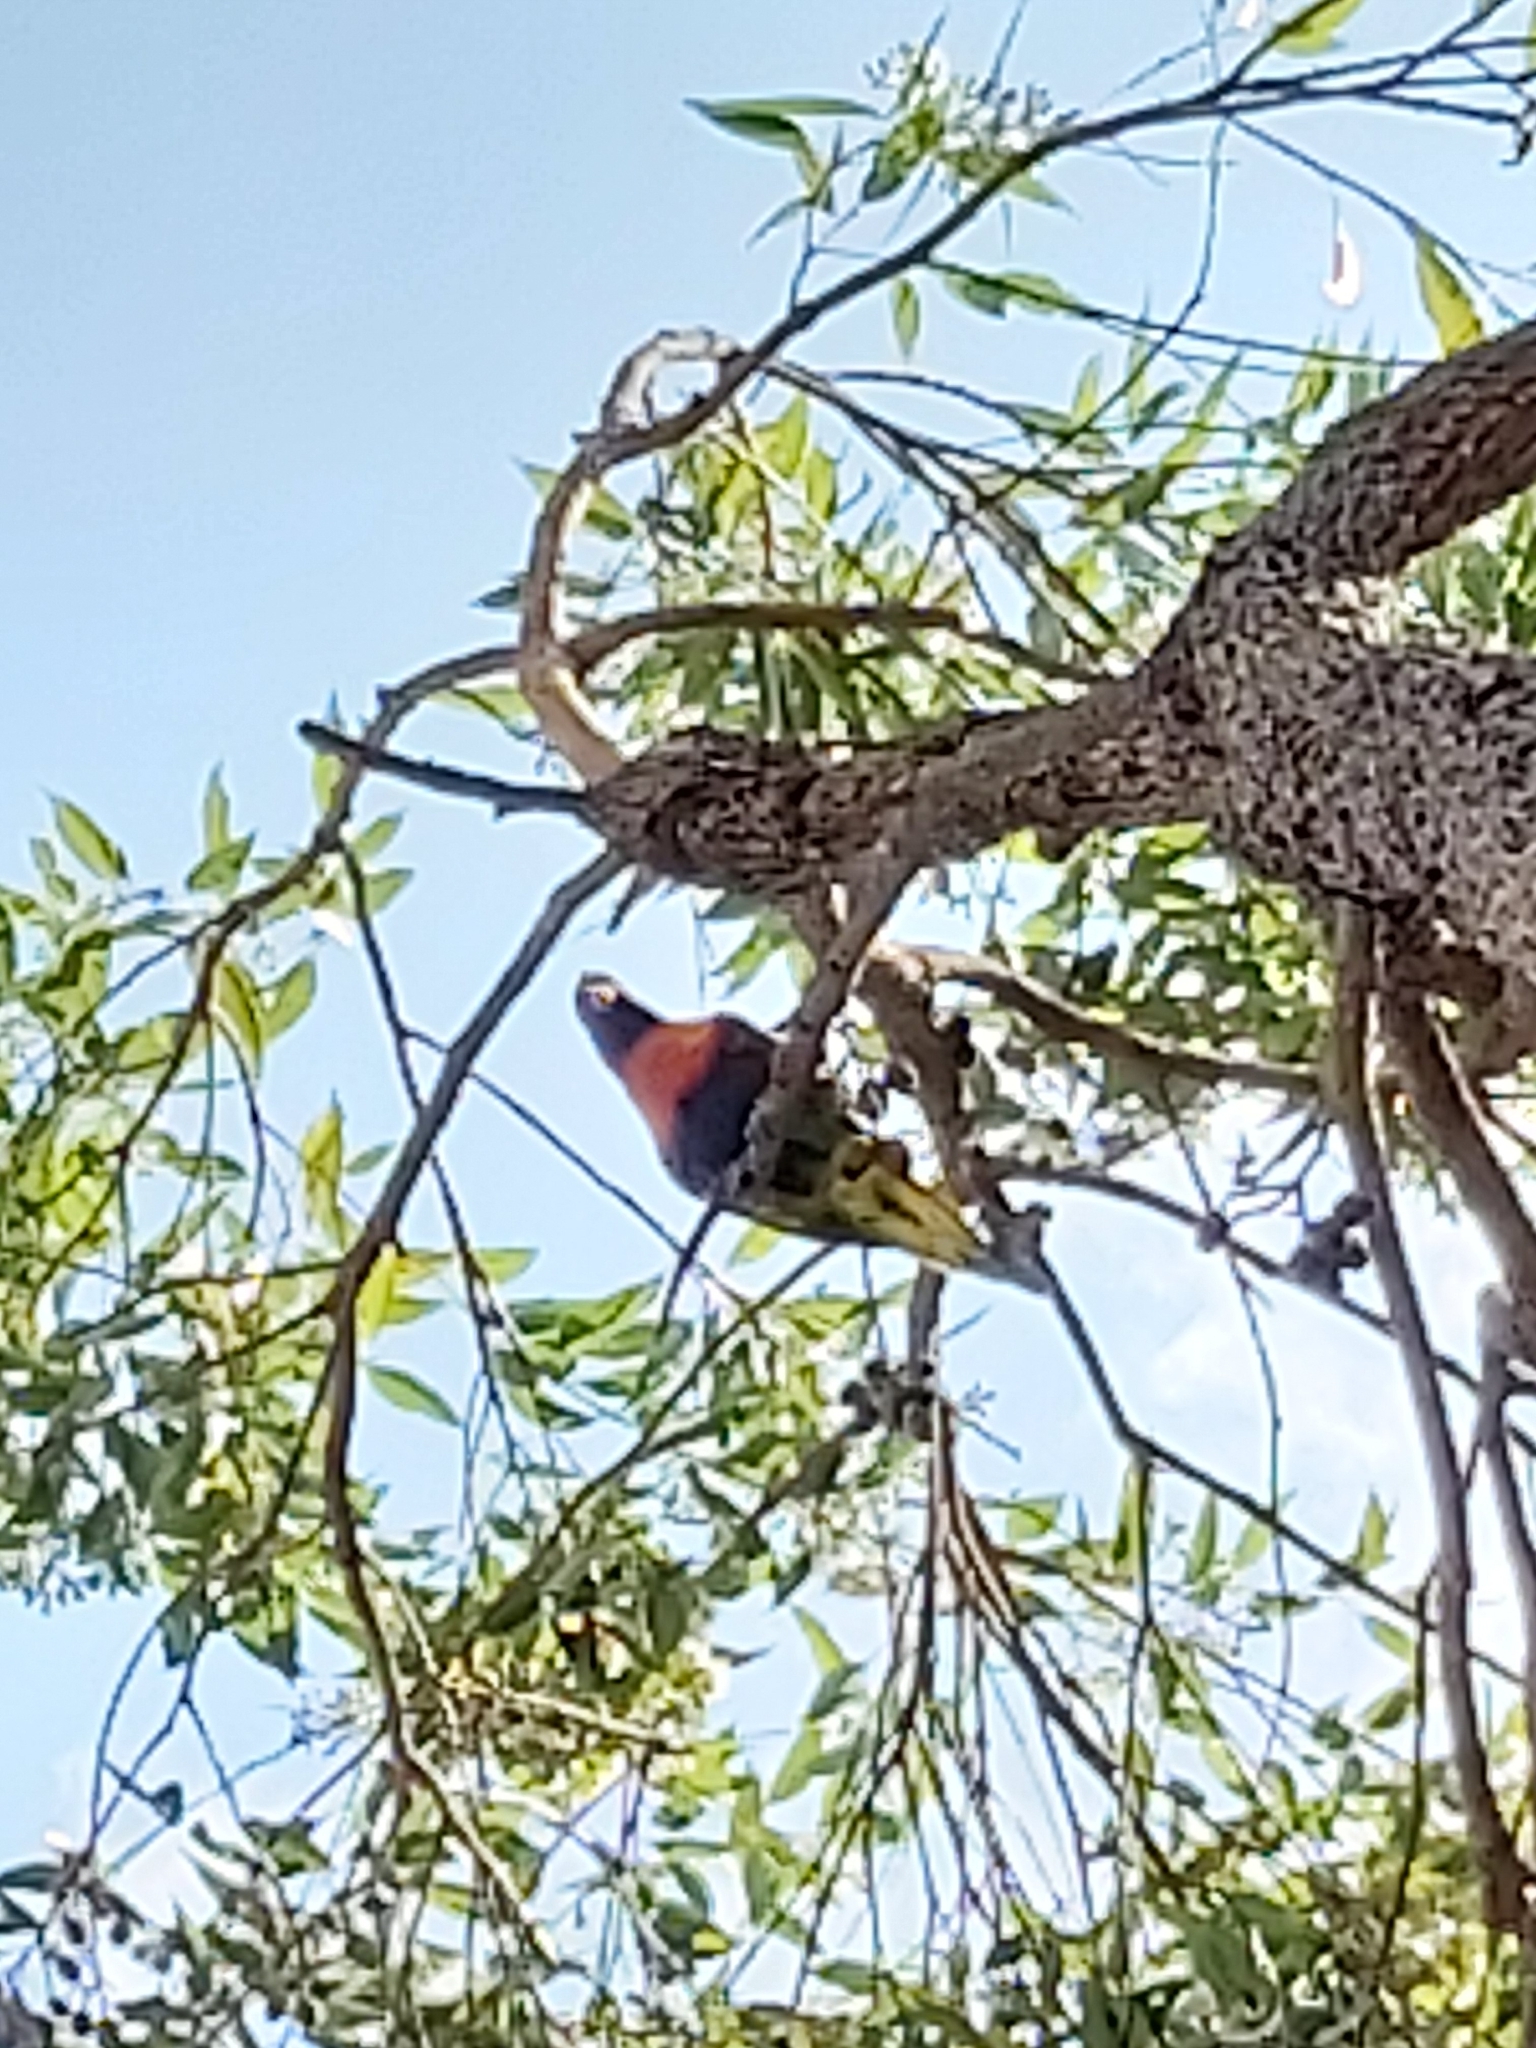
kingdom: Animalia
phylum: Chordata
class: Aves
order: Psittaciformes
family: Psittacidae
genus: Trichoglossus
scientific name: Trichoglossus haematodus
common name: Coconut lorikeet
